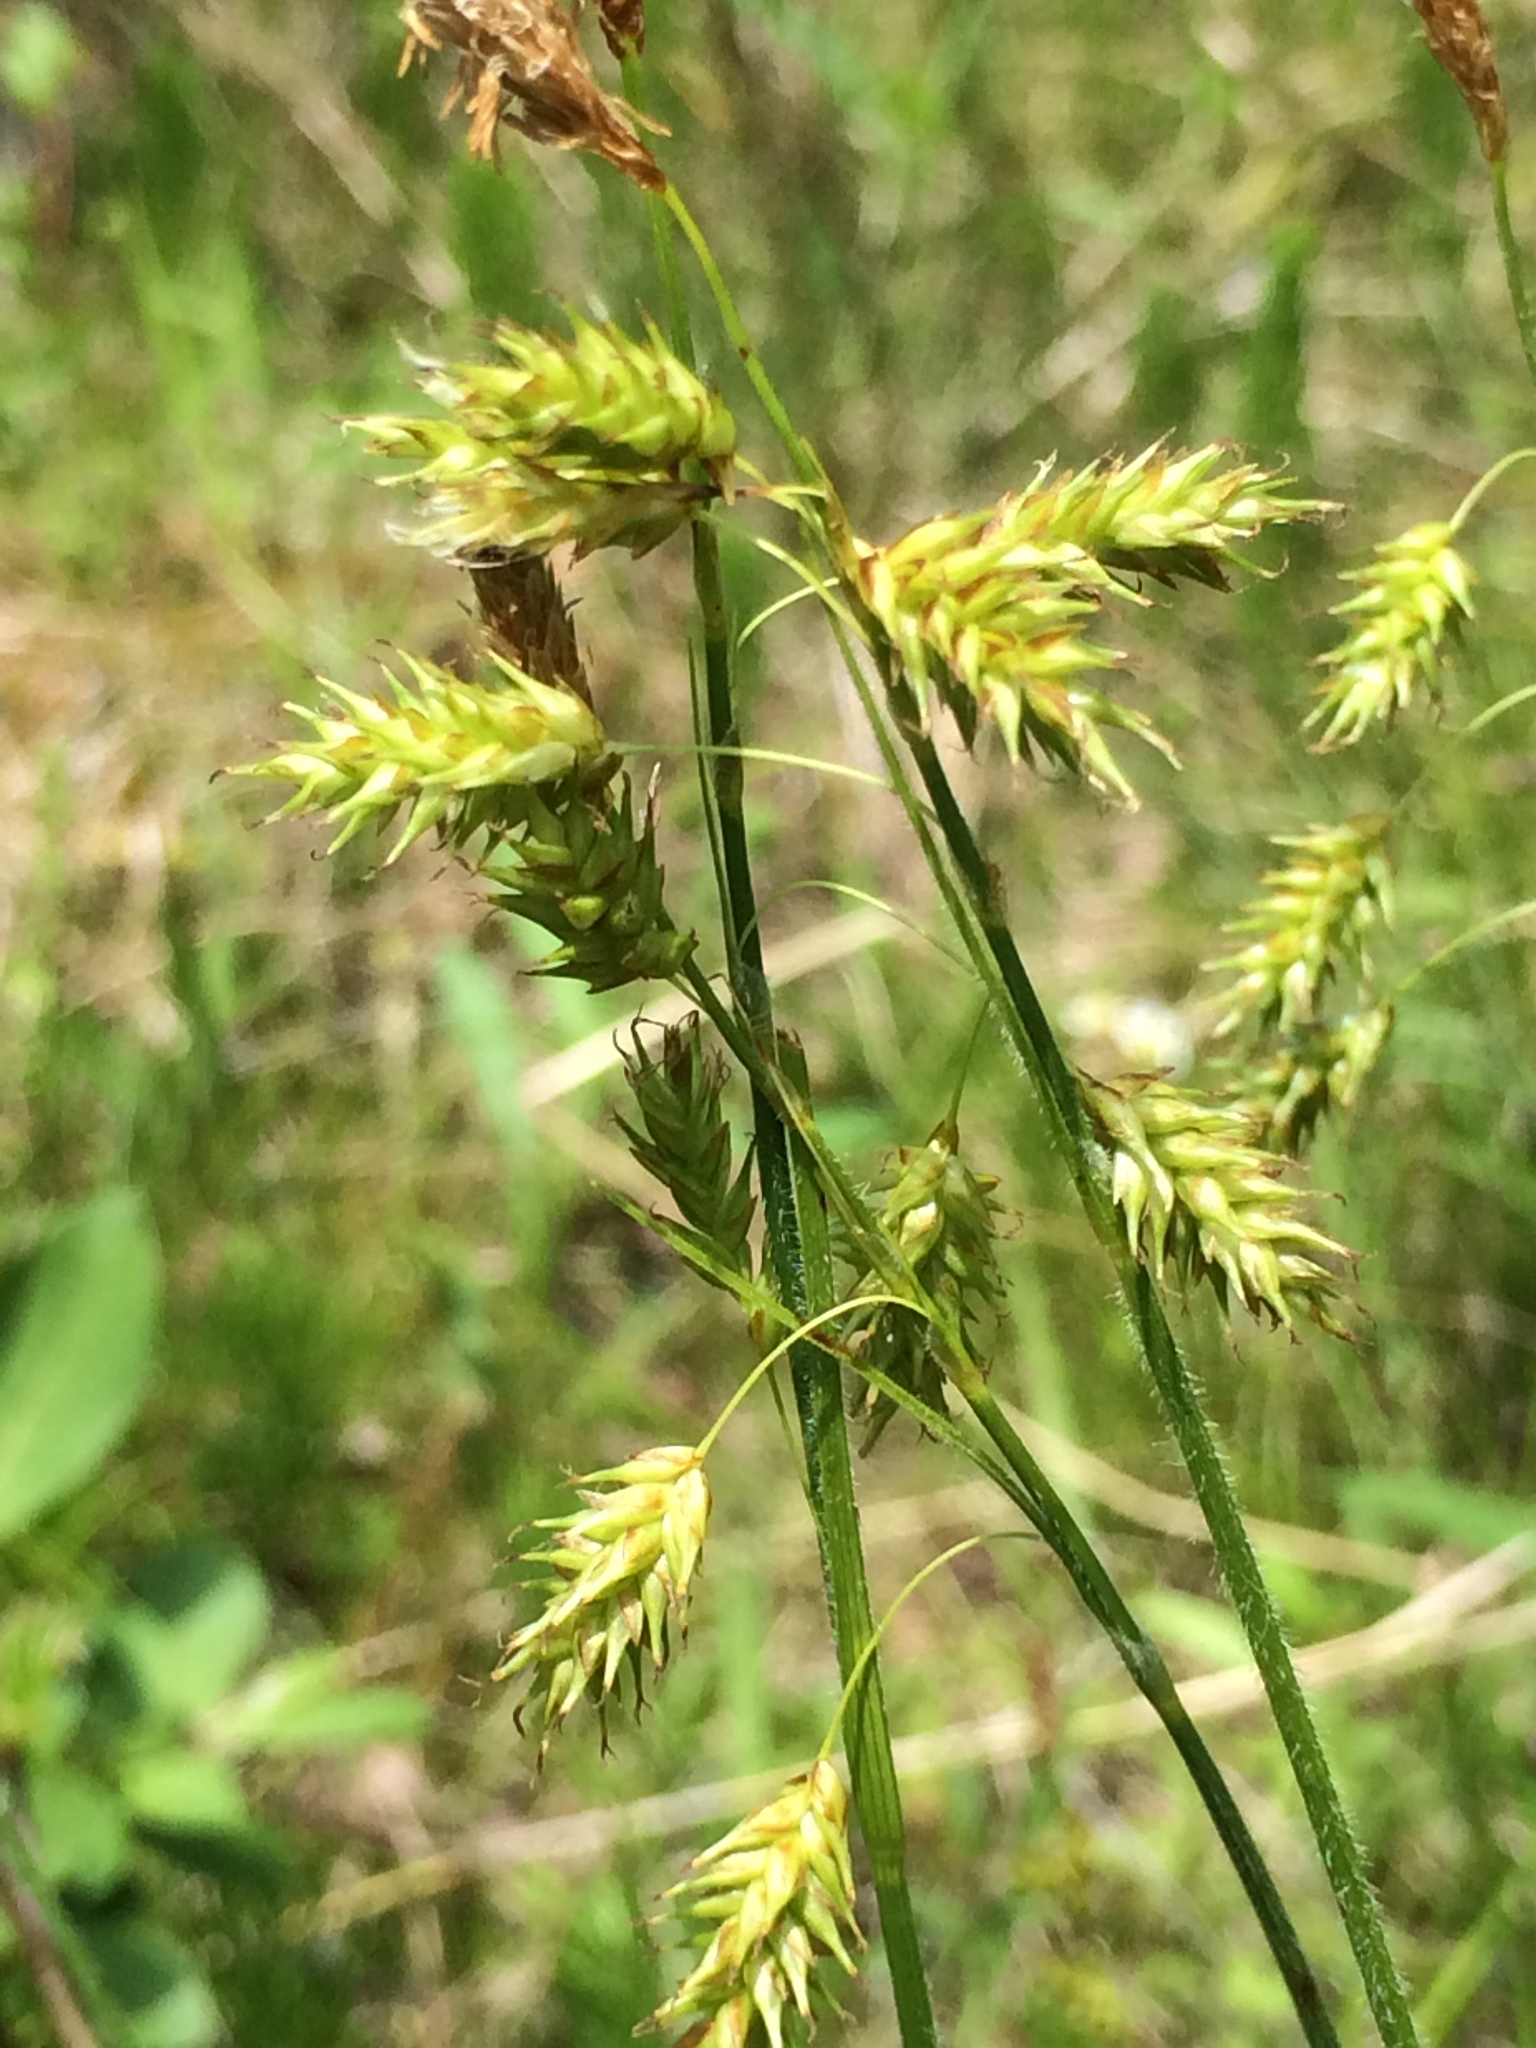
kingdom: Plantae
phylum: Tracheophyta
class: Liliopsida
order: Poales
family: Cyperaceae
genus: Carex
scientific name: Carex castanea
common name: Chestnut sedge
